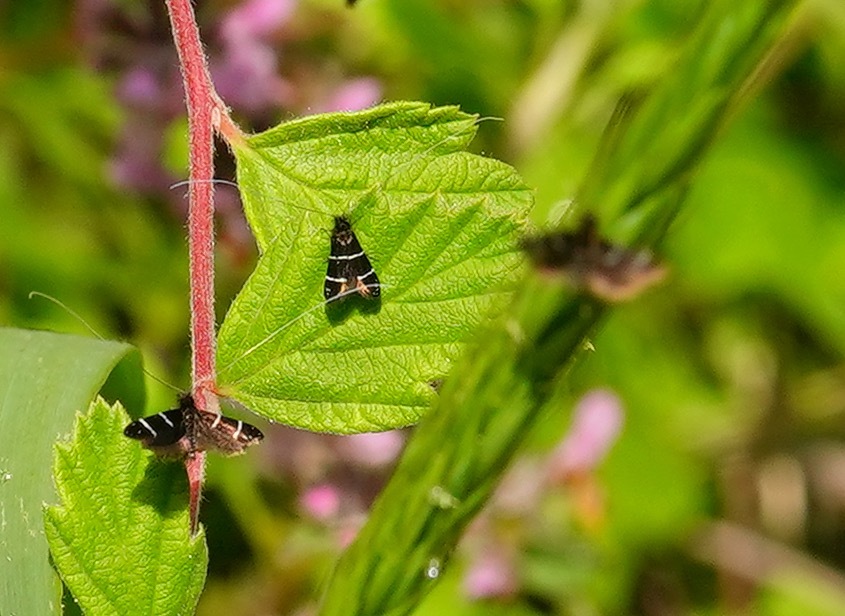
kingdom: Animalia
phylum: Arthropoda
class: Insecta
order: Lepidoptera
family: Adelidae
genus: Adela
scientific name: Adela septentrionella
